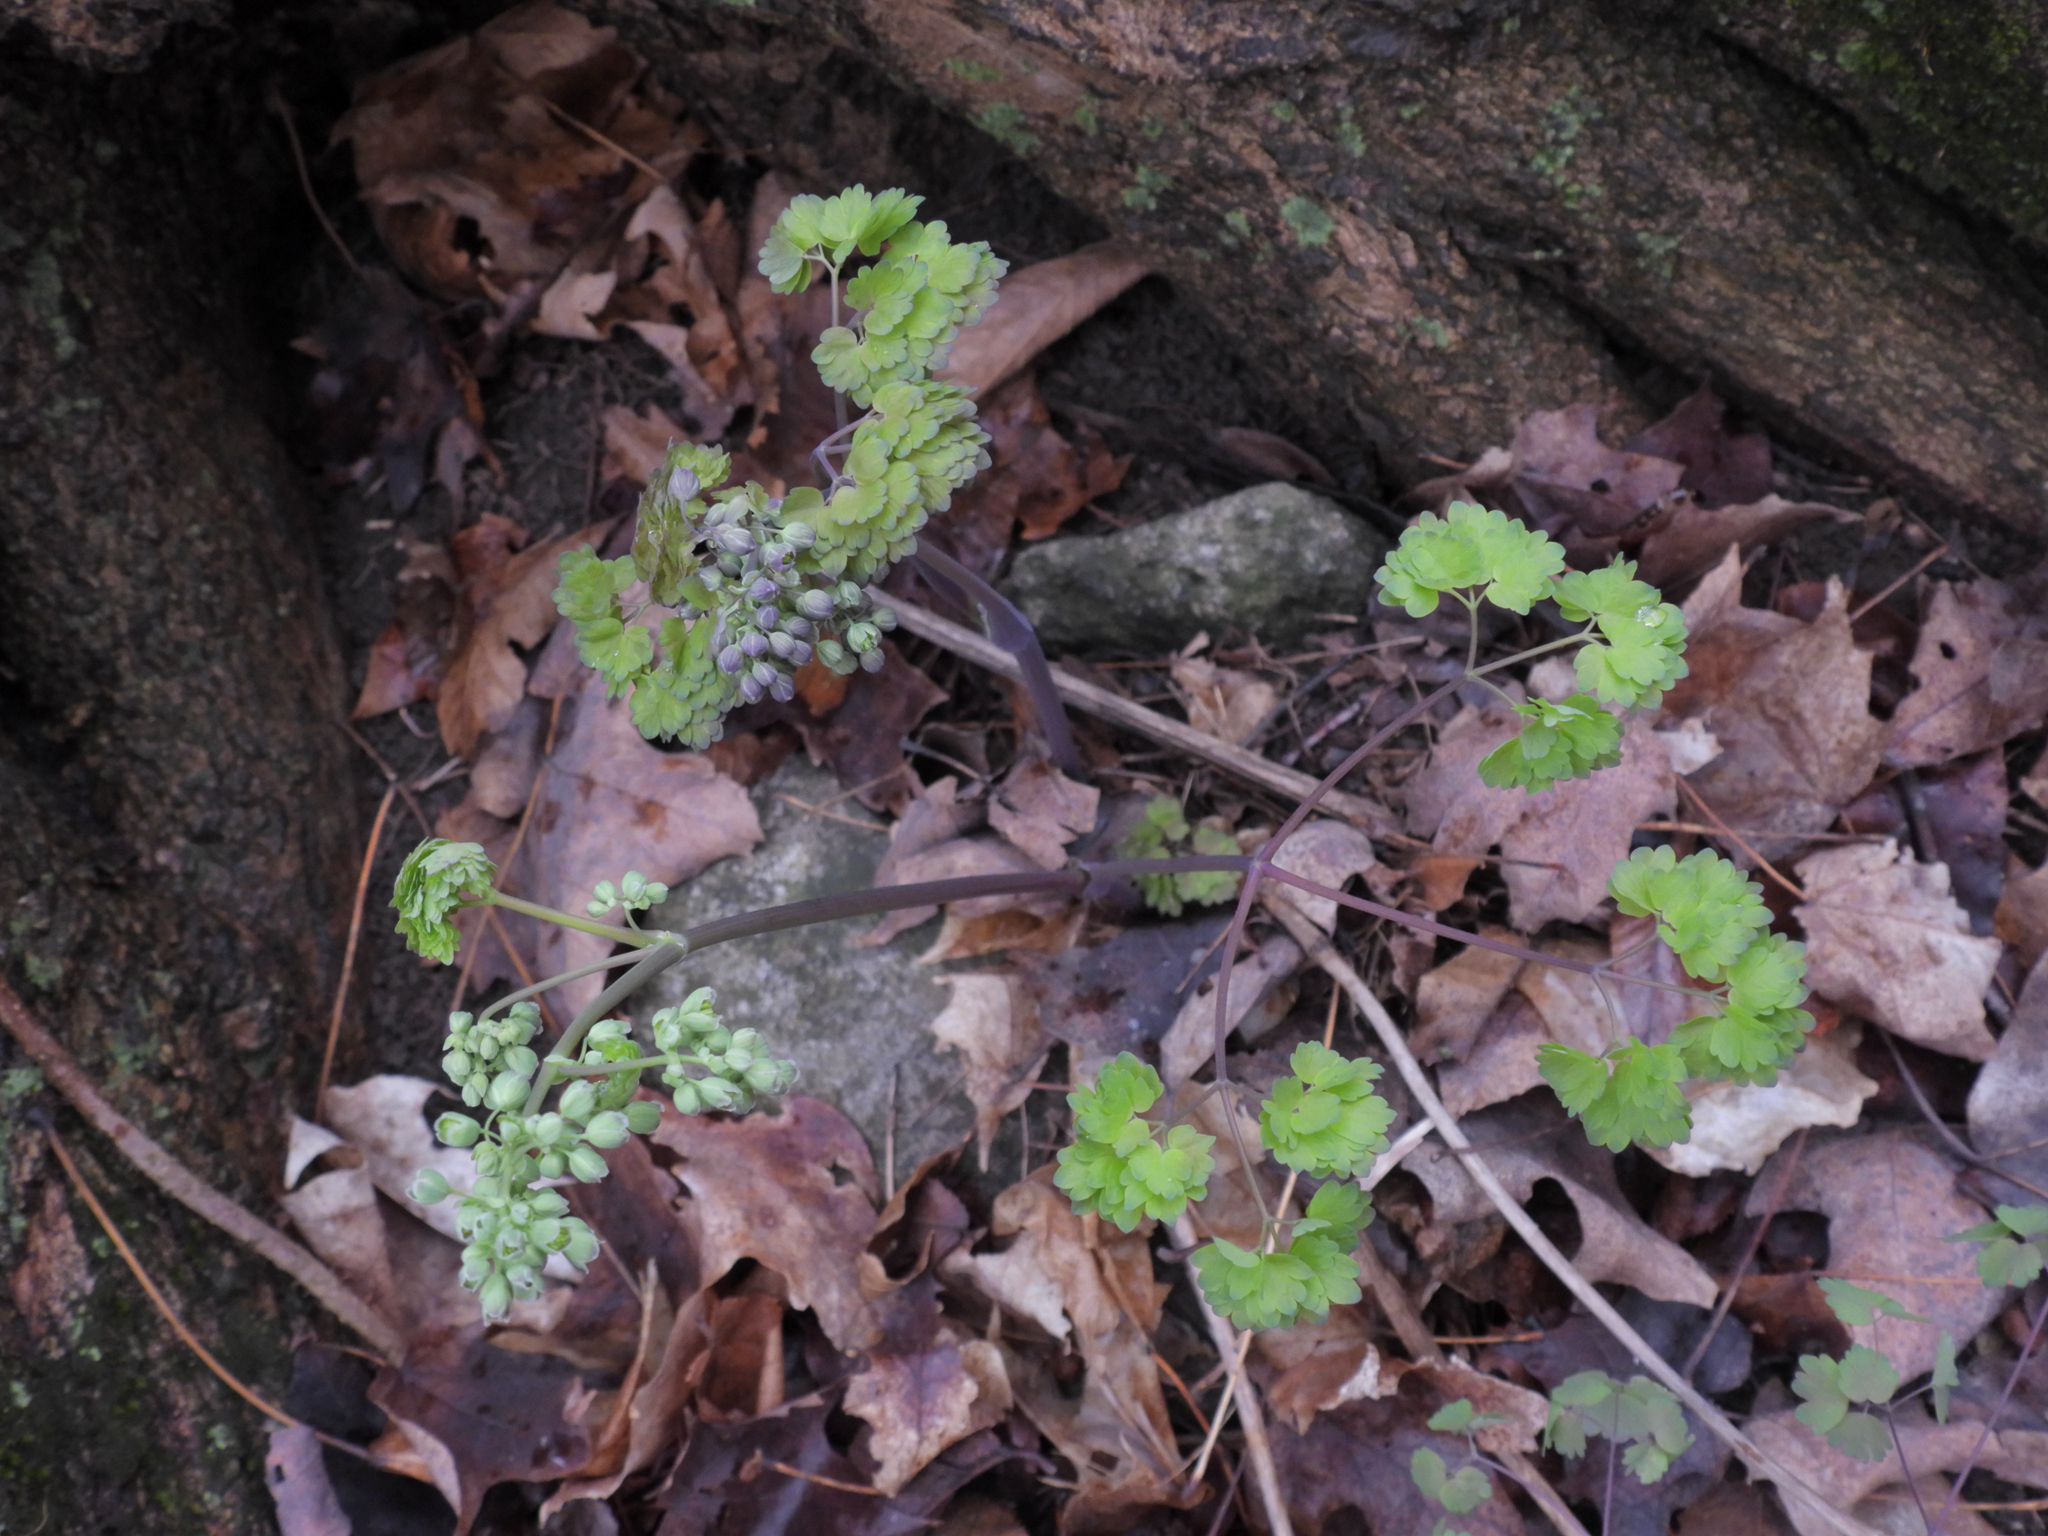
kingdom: Plantae
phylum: Tracheophyta
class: Magnoliopsida
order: Ranunculales
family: Ranunculaceae
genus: Thalictrum
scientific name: Thalictrum dioicum
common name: Early meadow-rue
